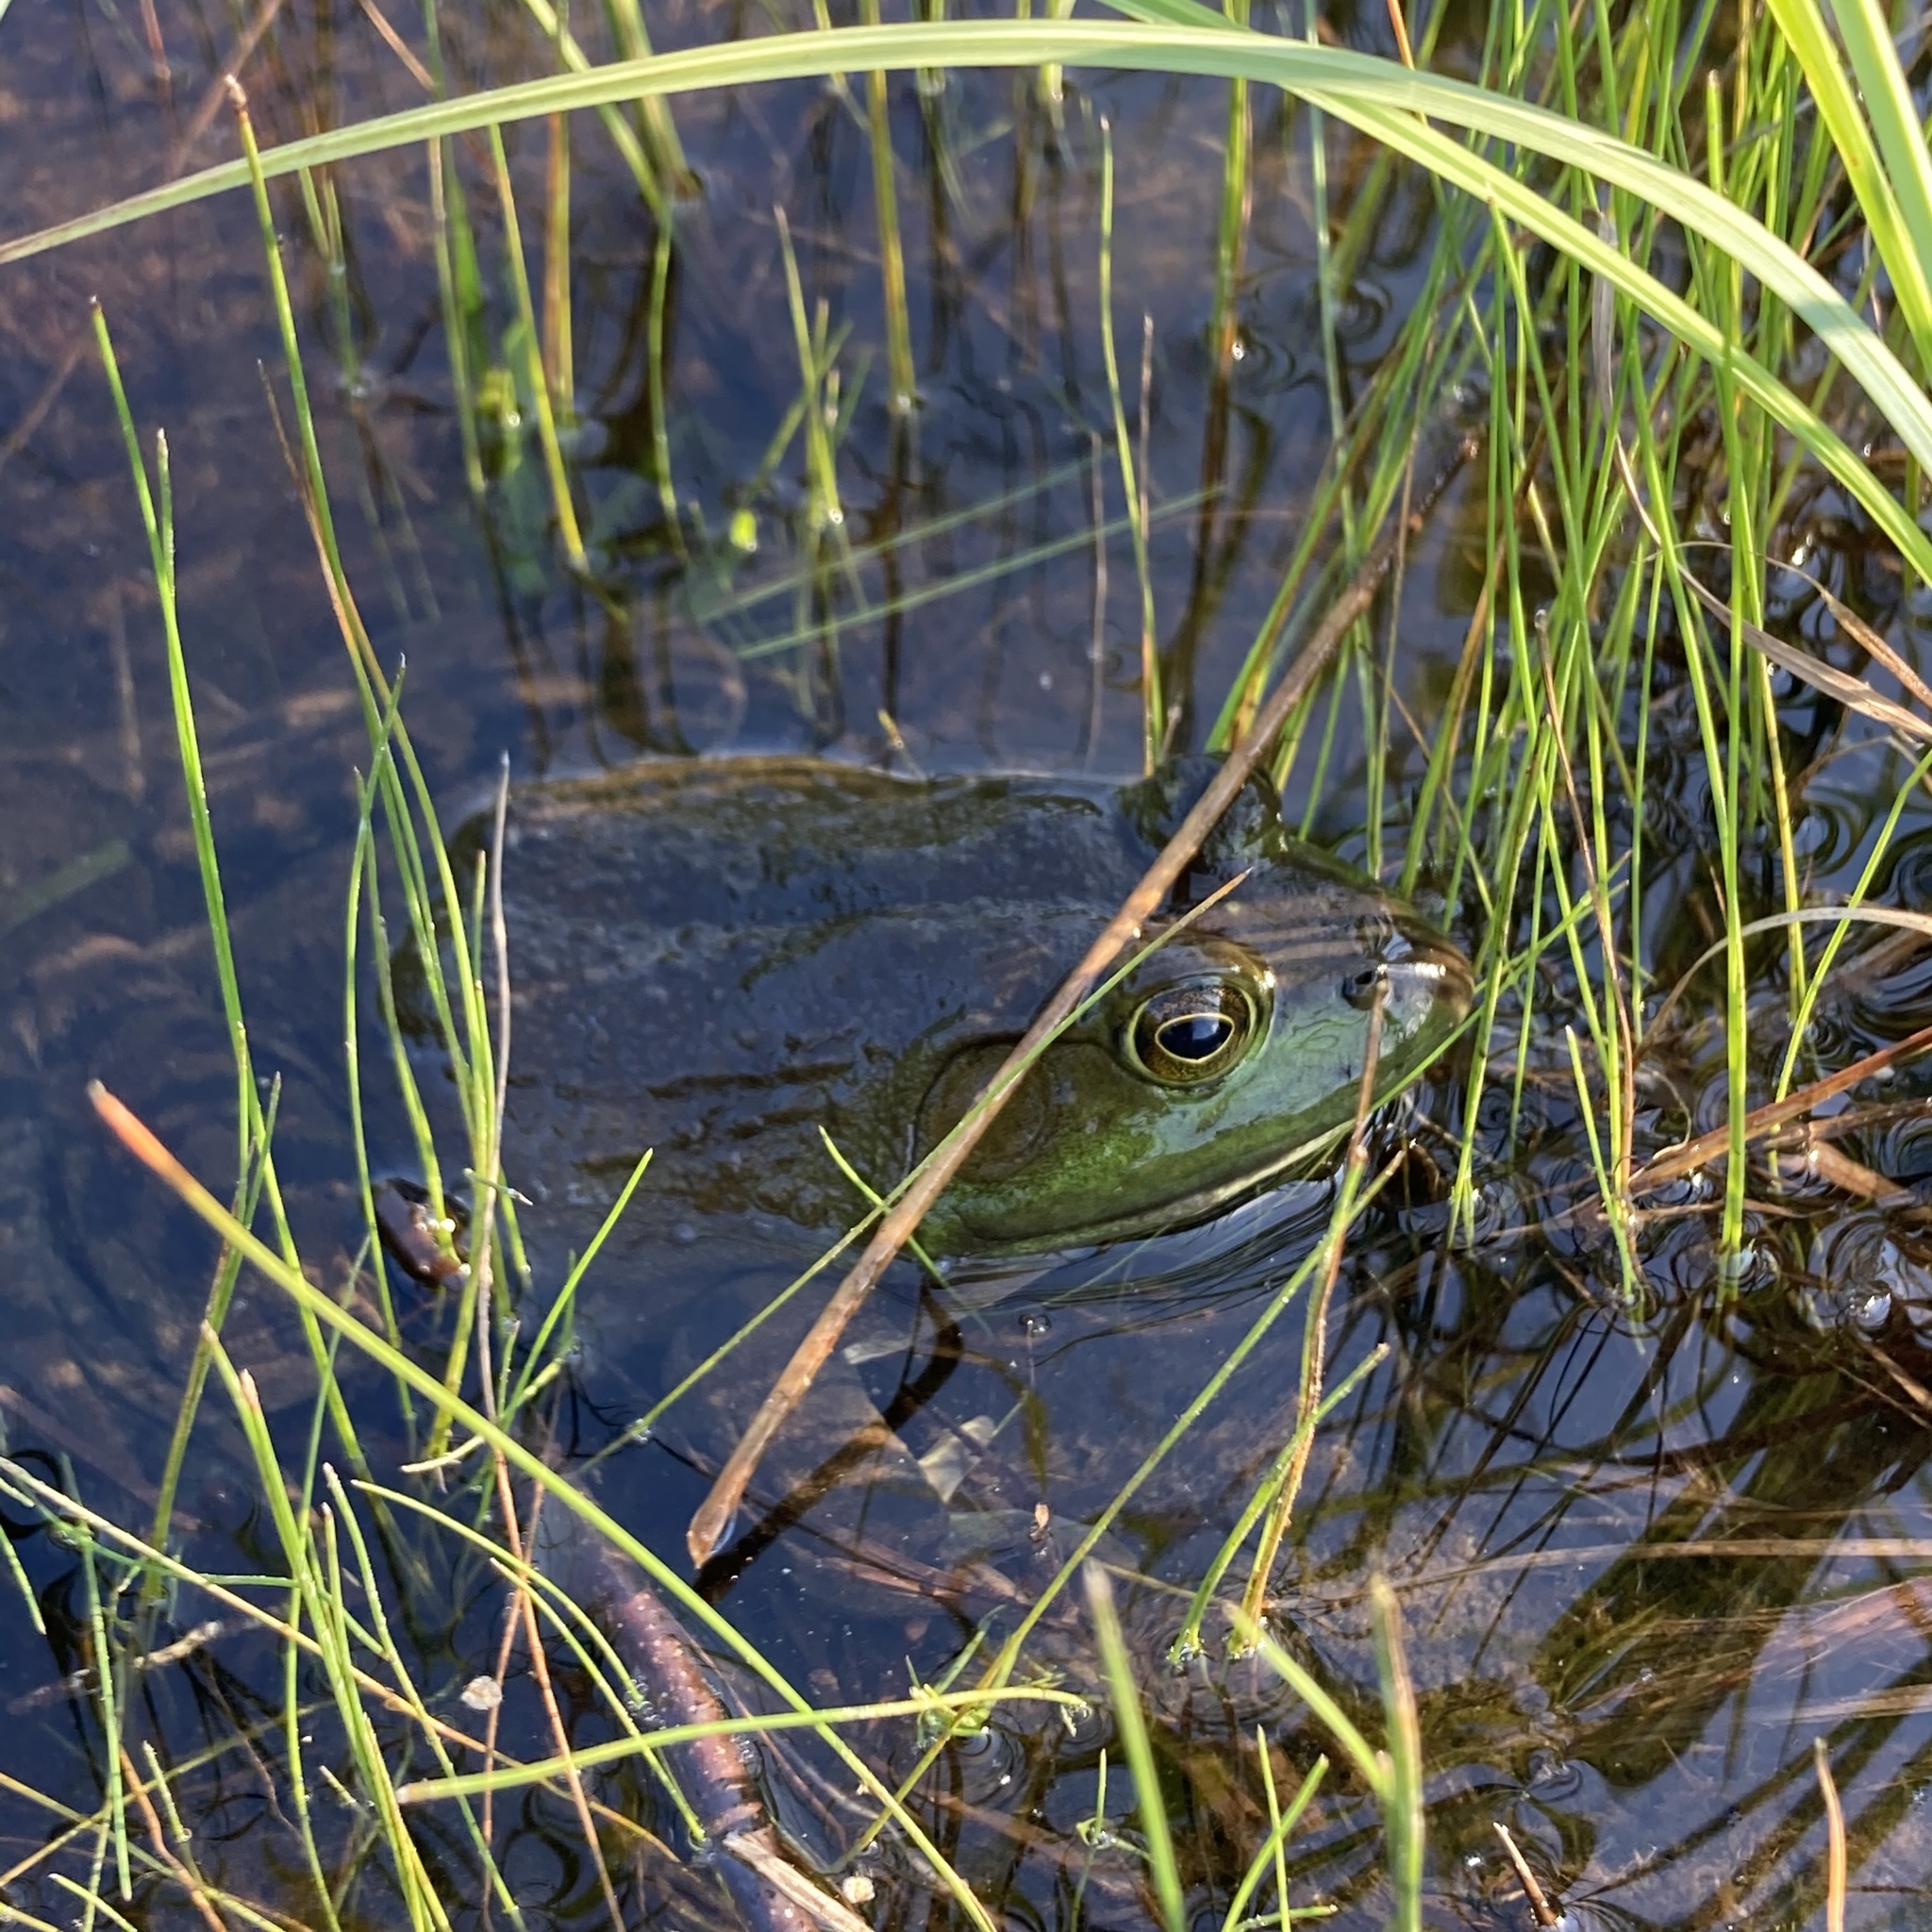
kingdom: Animalia
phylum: Chordata
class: Amphibia
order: Anura
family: Ranidae
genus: Lithobates
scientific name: Lithobates catesbeianus
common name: American bullfrog
